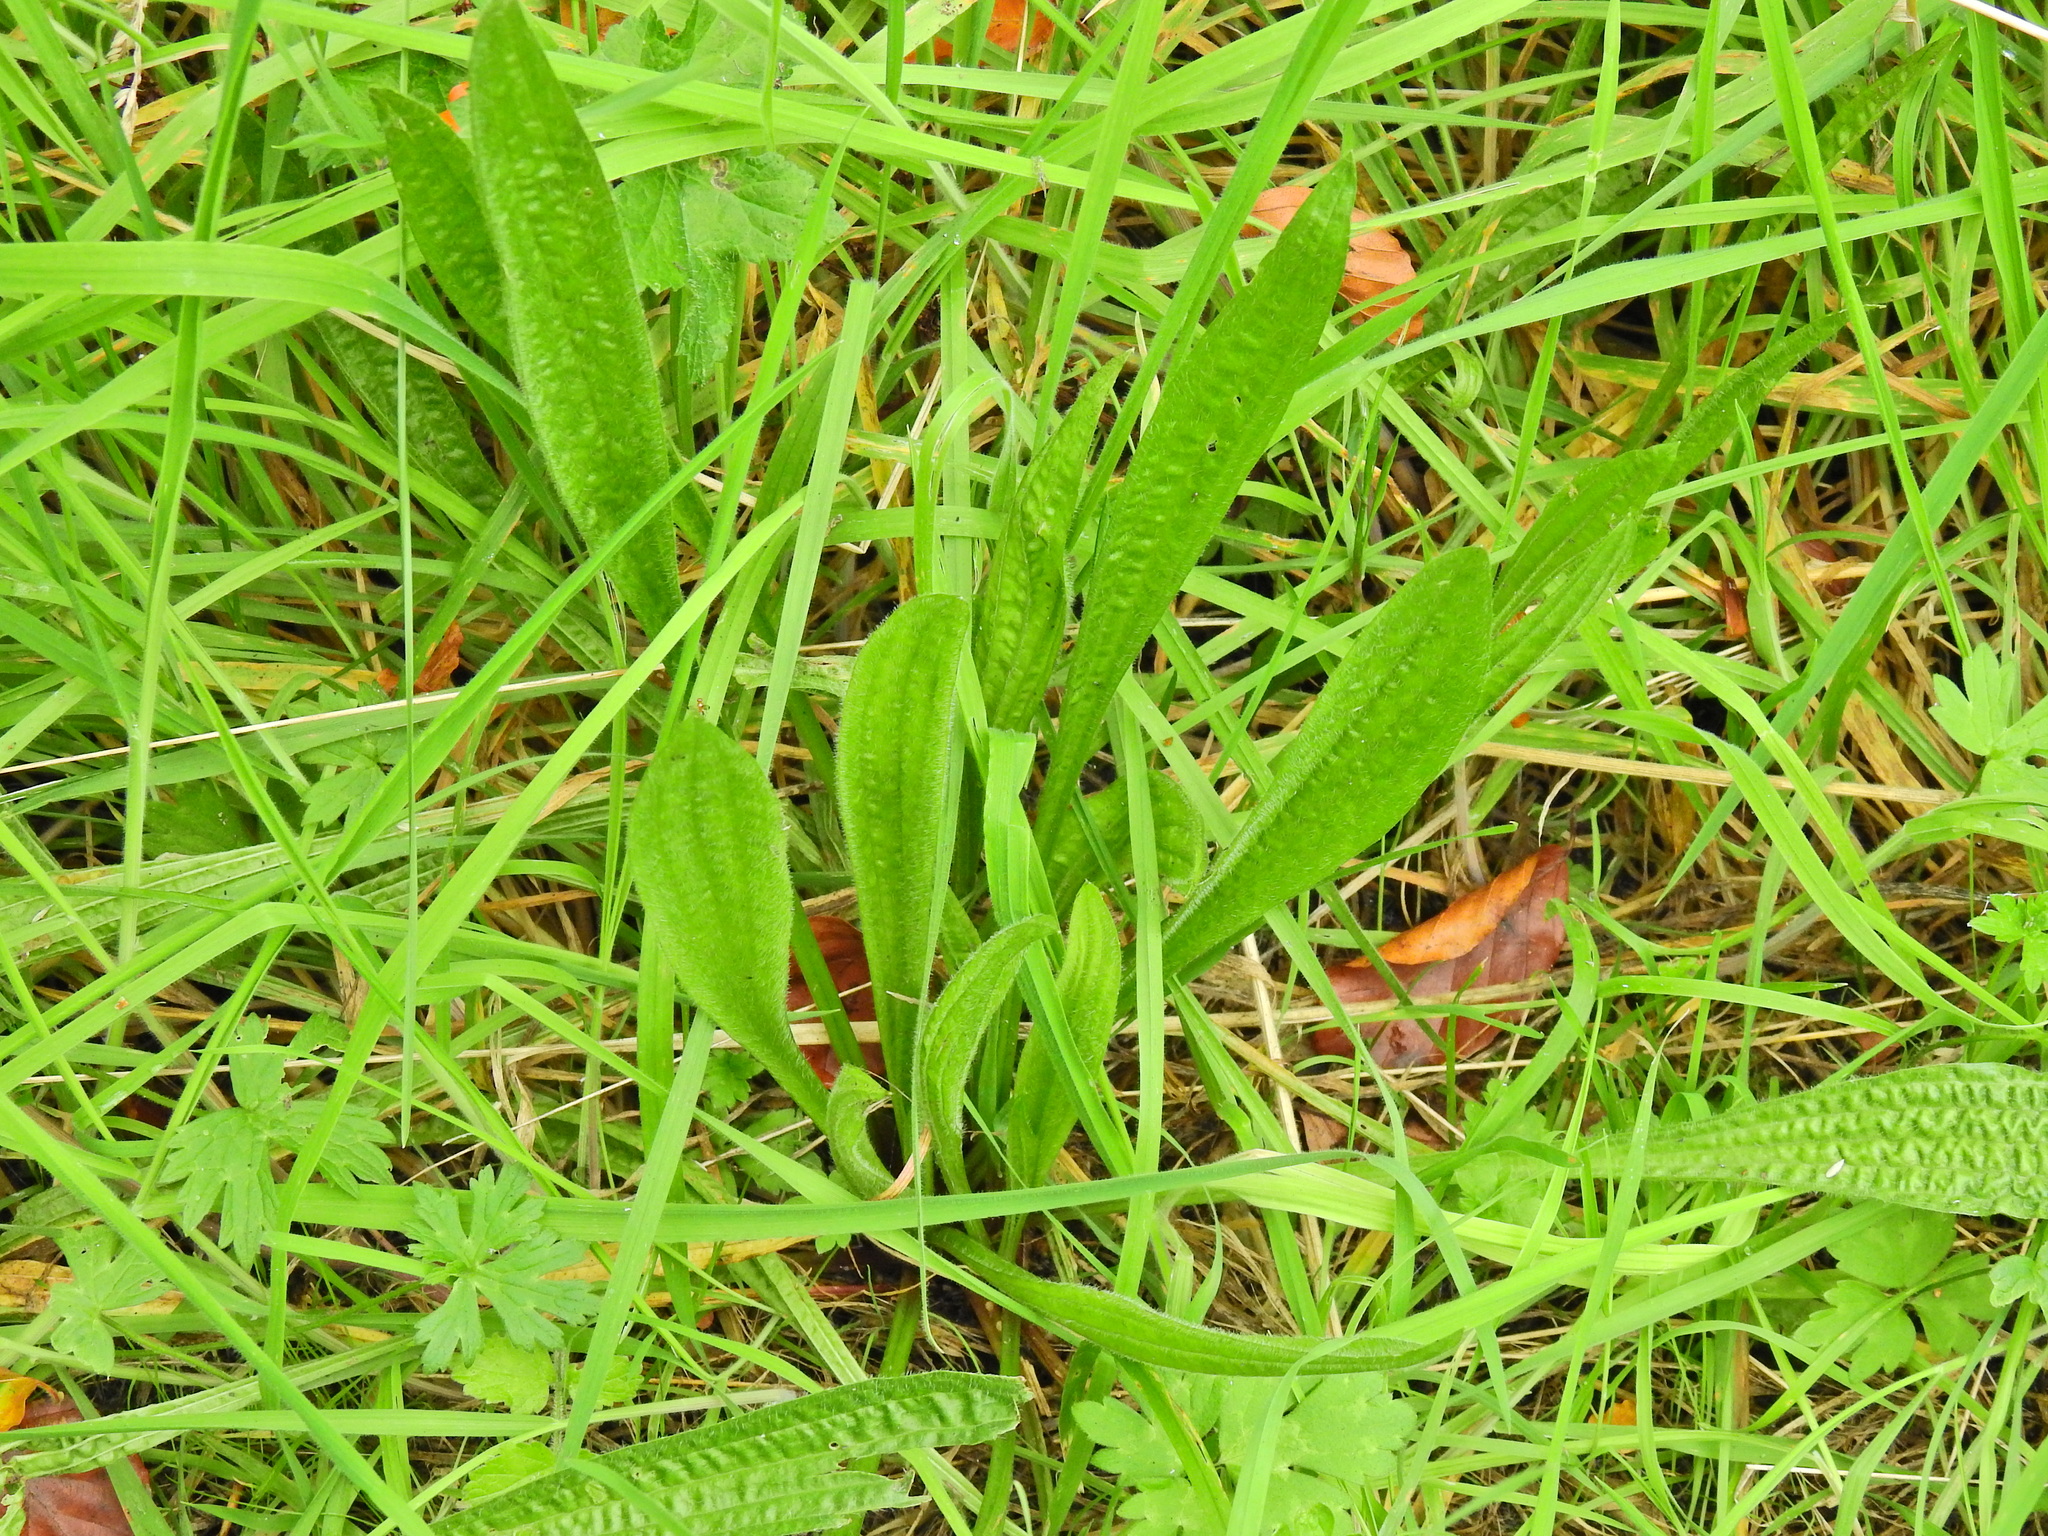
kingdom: Plantae
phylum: Tracheophyta
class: Magnoliopsida
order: Lamiales
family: Plantaginaceae
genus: Plantago
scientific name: Plantago lanceolata
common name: Ribwort plantain
